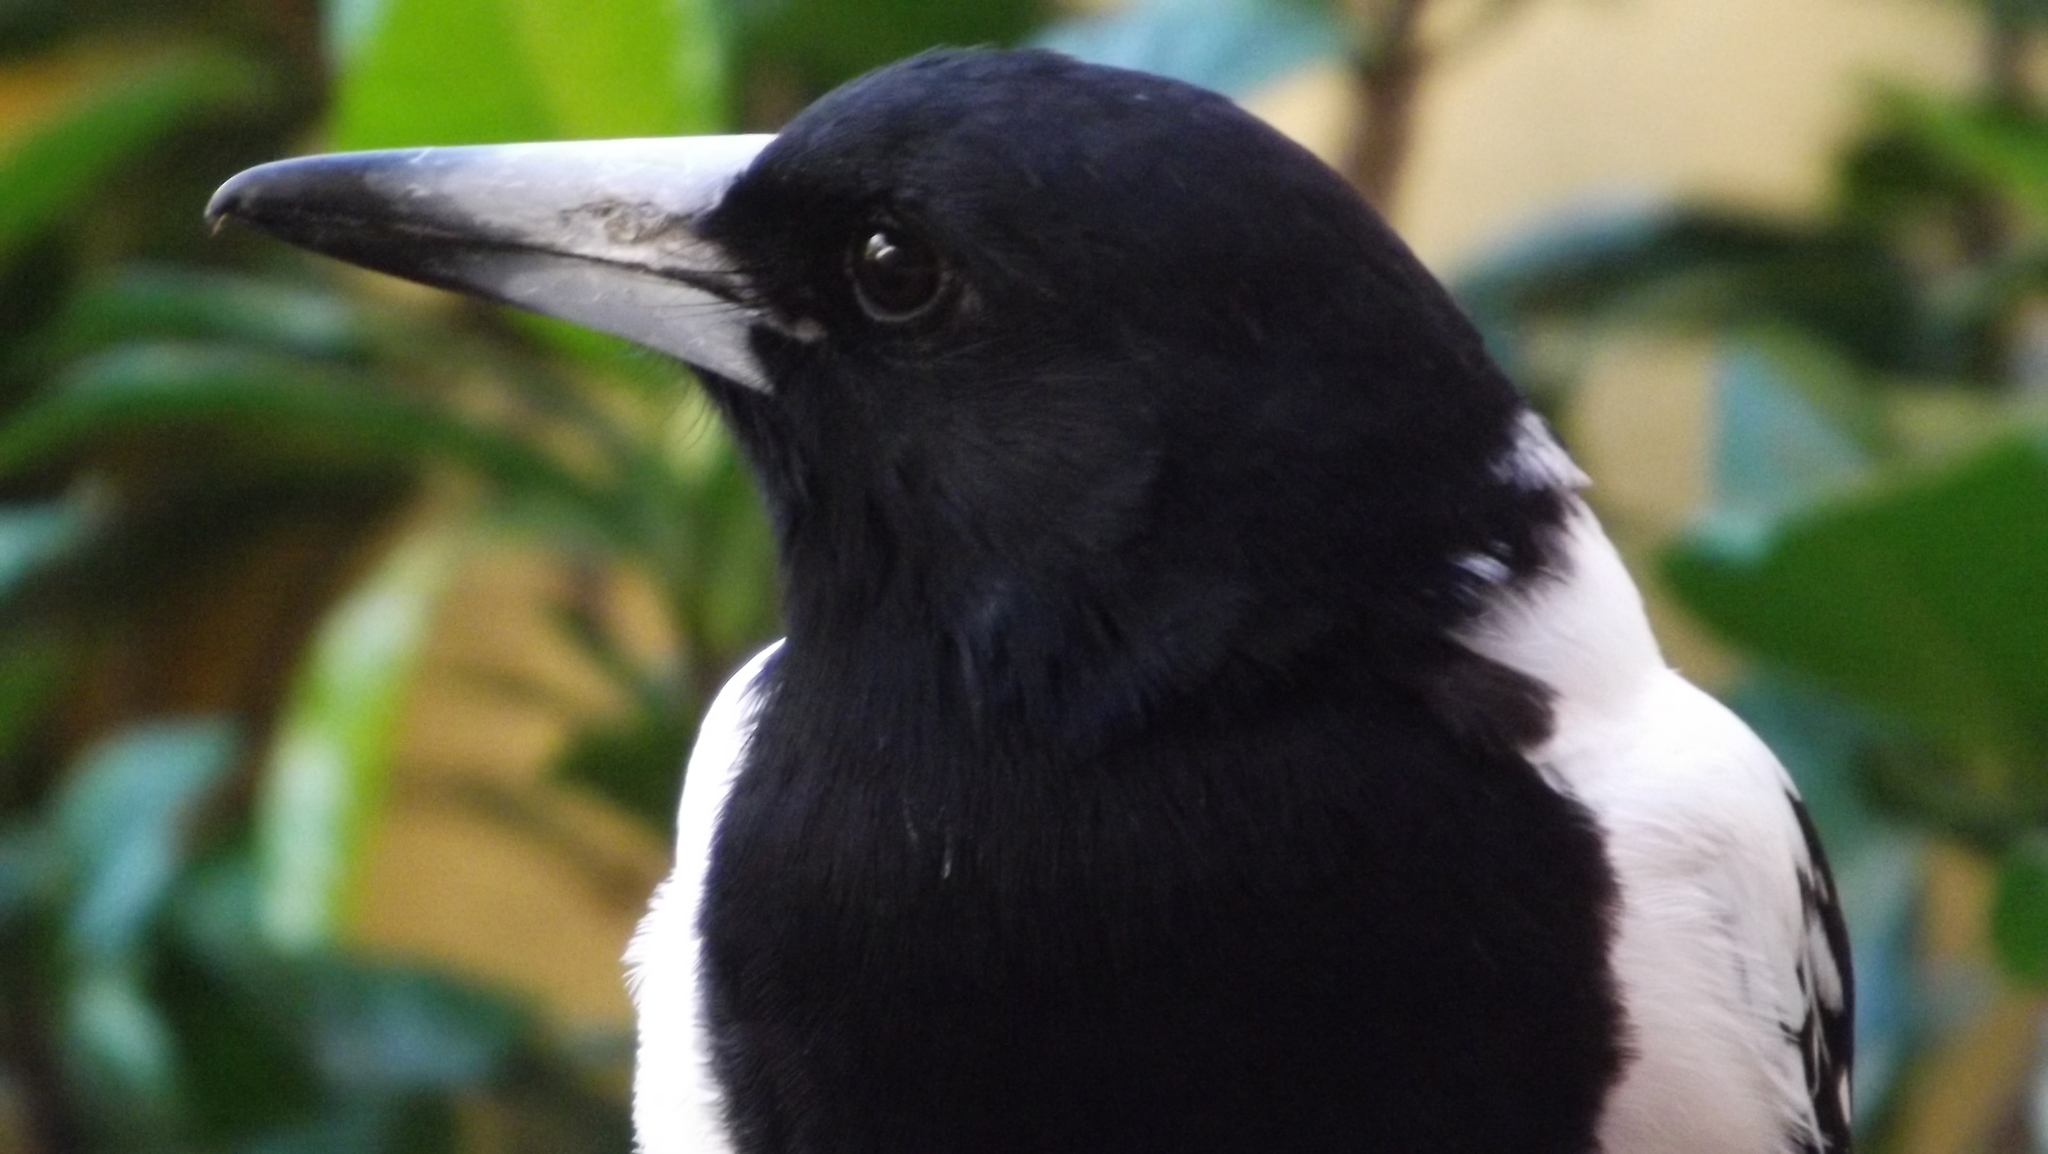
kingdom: Animalia
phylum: Chordata
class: Aves
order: Passeriformes
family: Cracticidae
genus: Cracticus
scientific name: Cracticus nigrogularis
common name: Pied butcherbird
